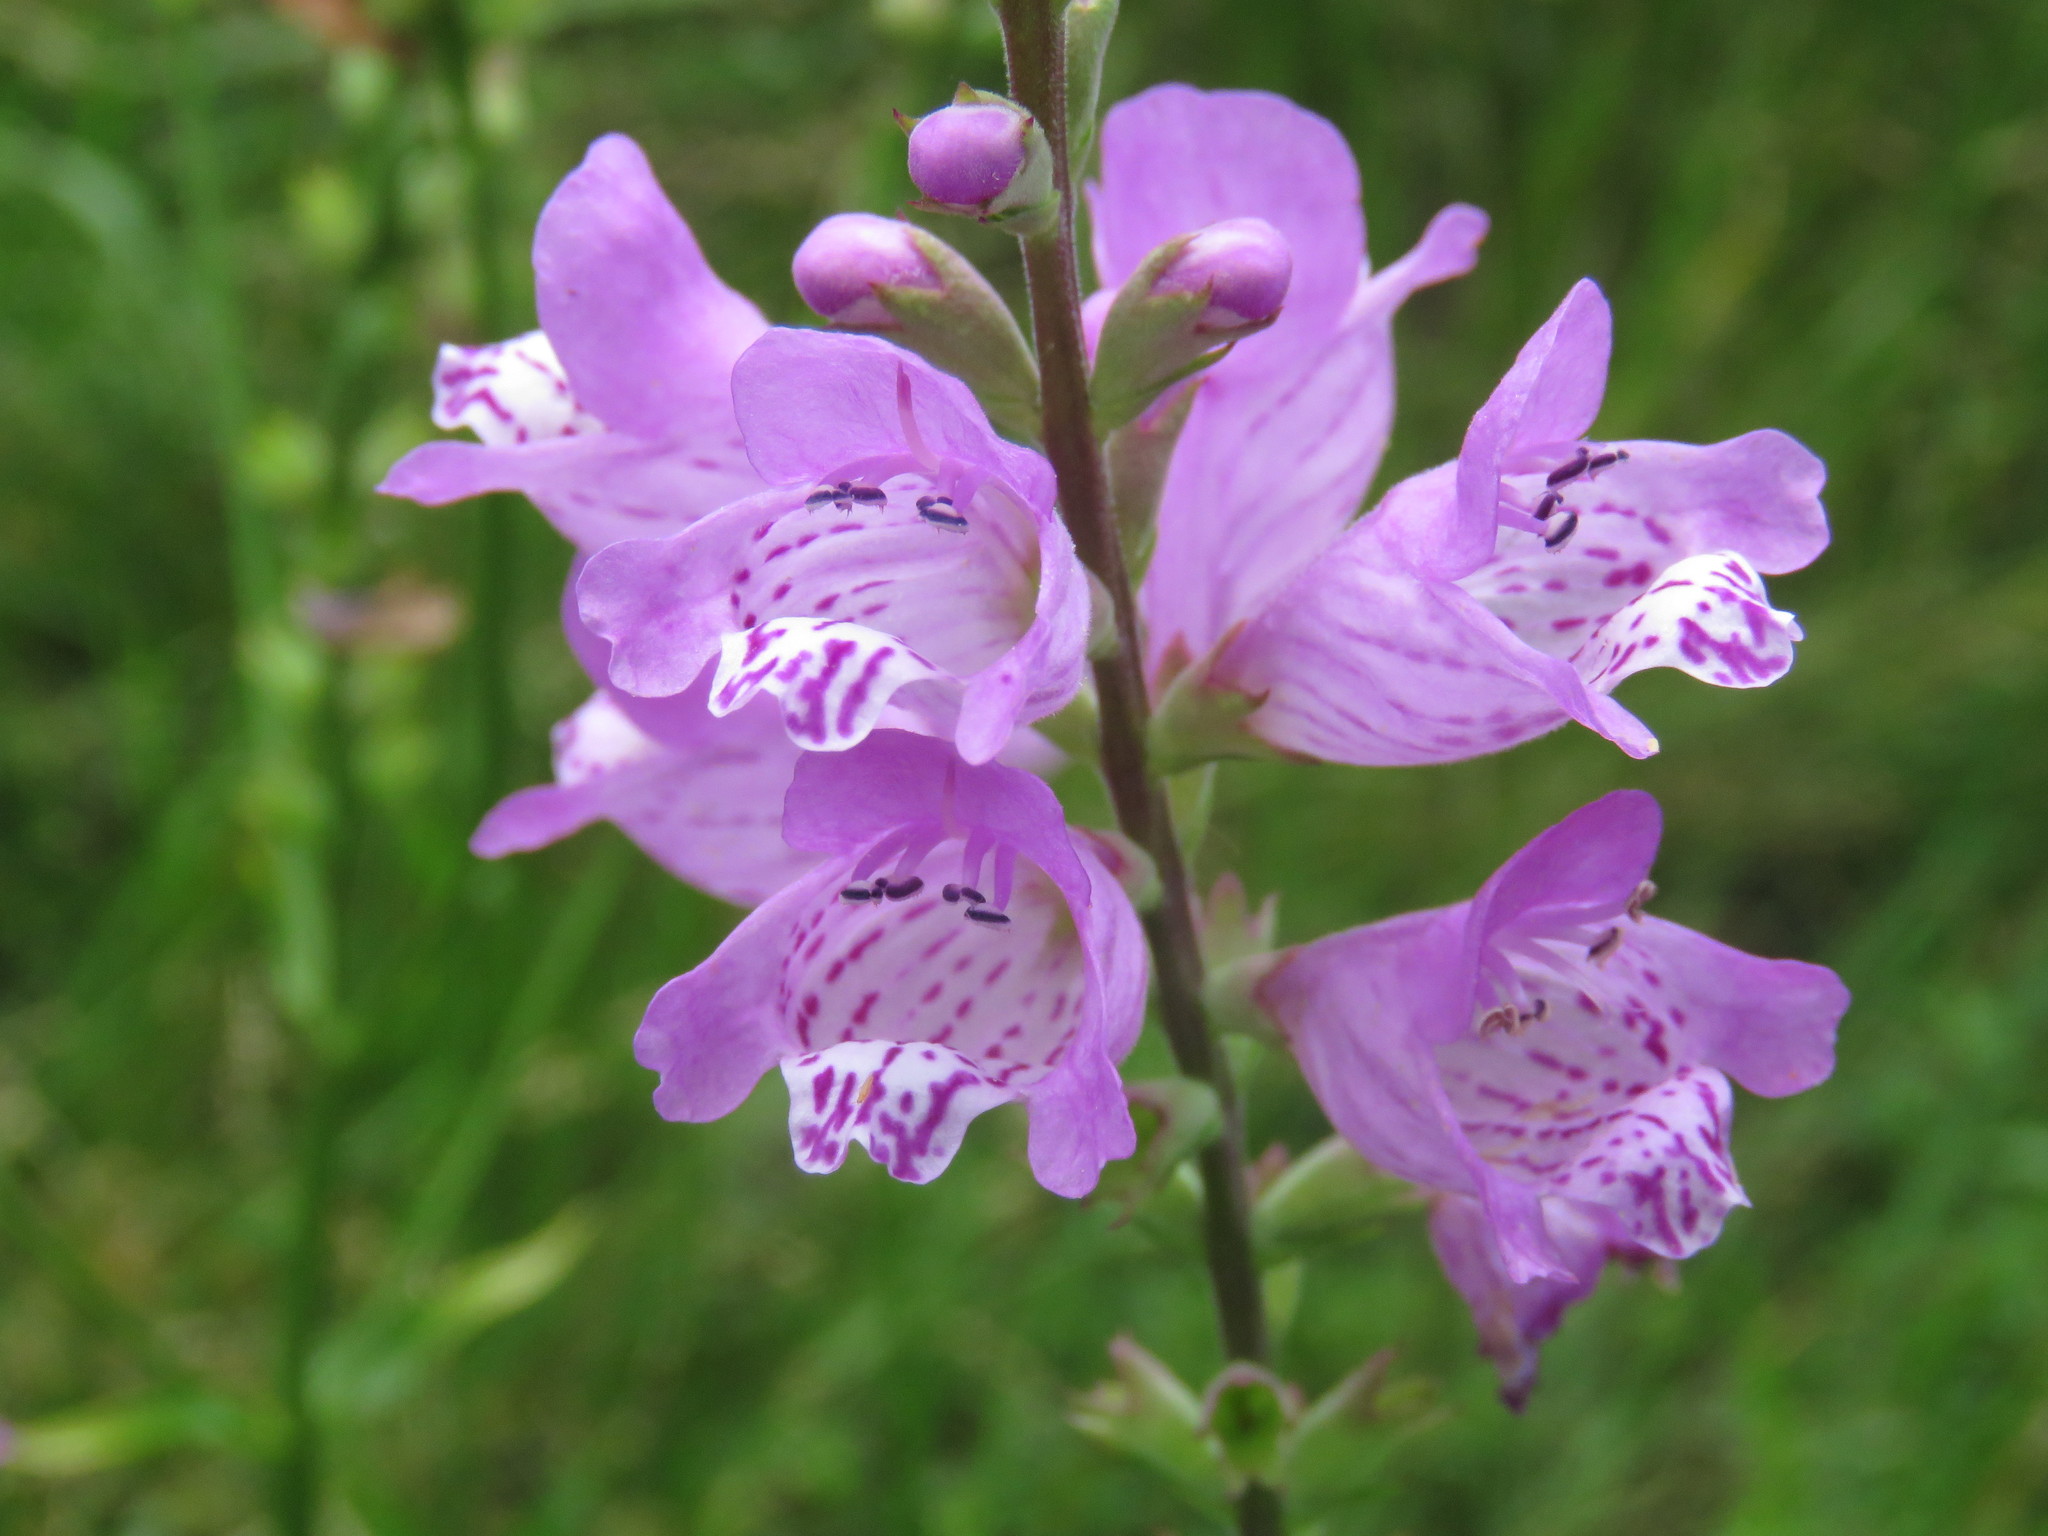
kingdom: Plantae
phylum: Tracheophyta
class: Magnoliopsida
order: Lamiales
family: Lamiaceae
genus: Physostegia
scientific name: Physostegia virginiana
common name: Obedient-plant
